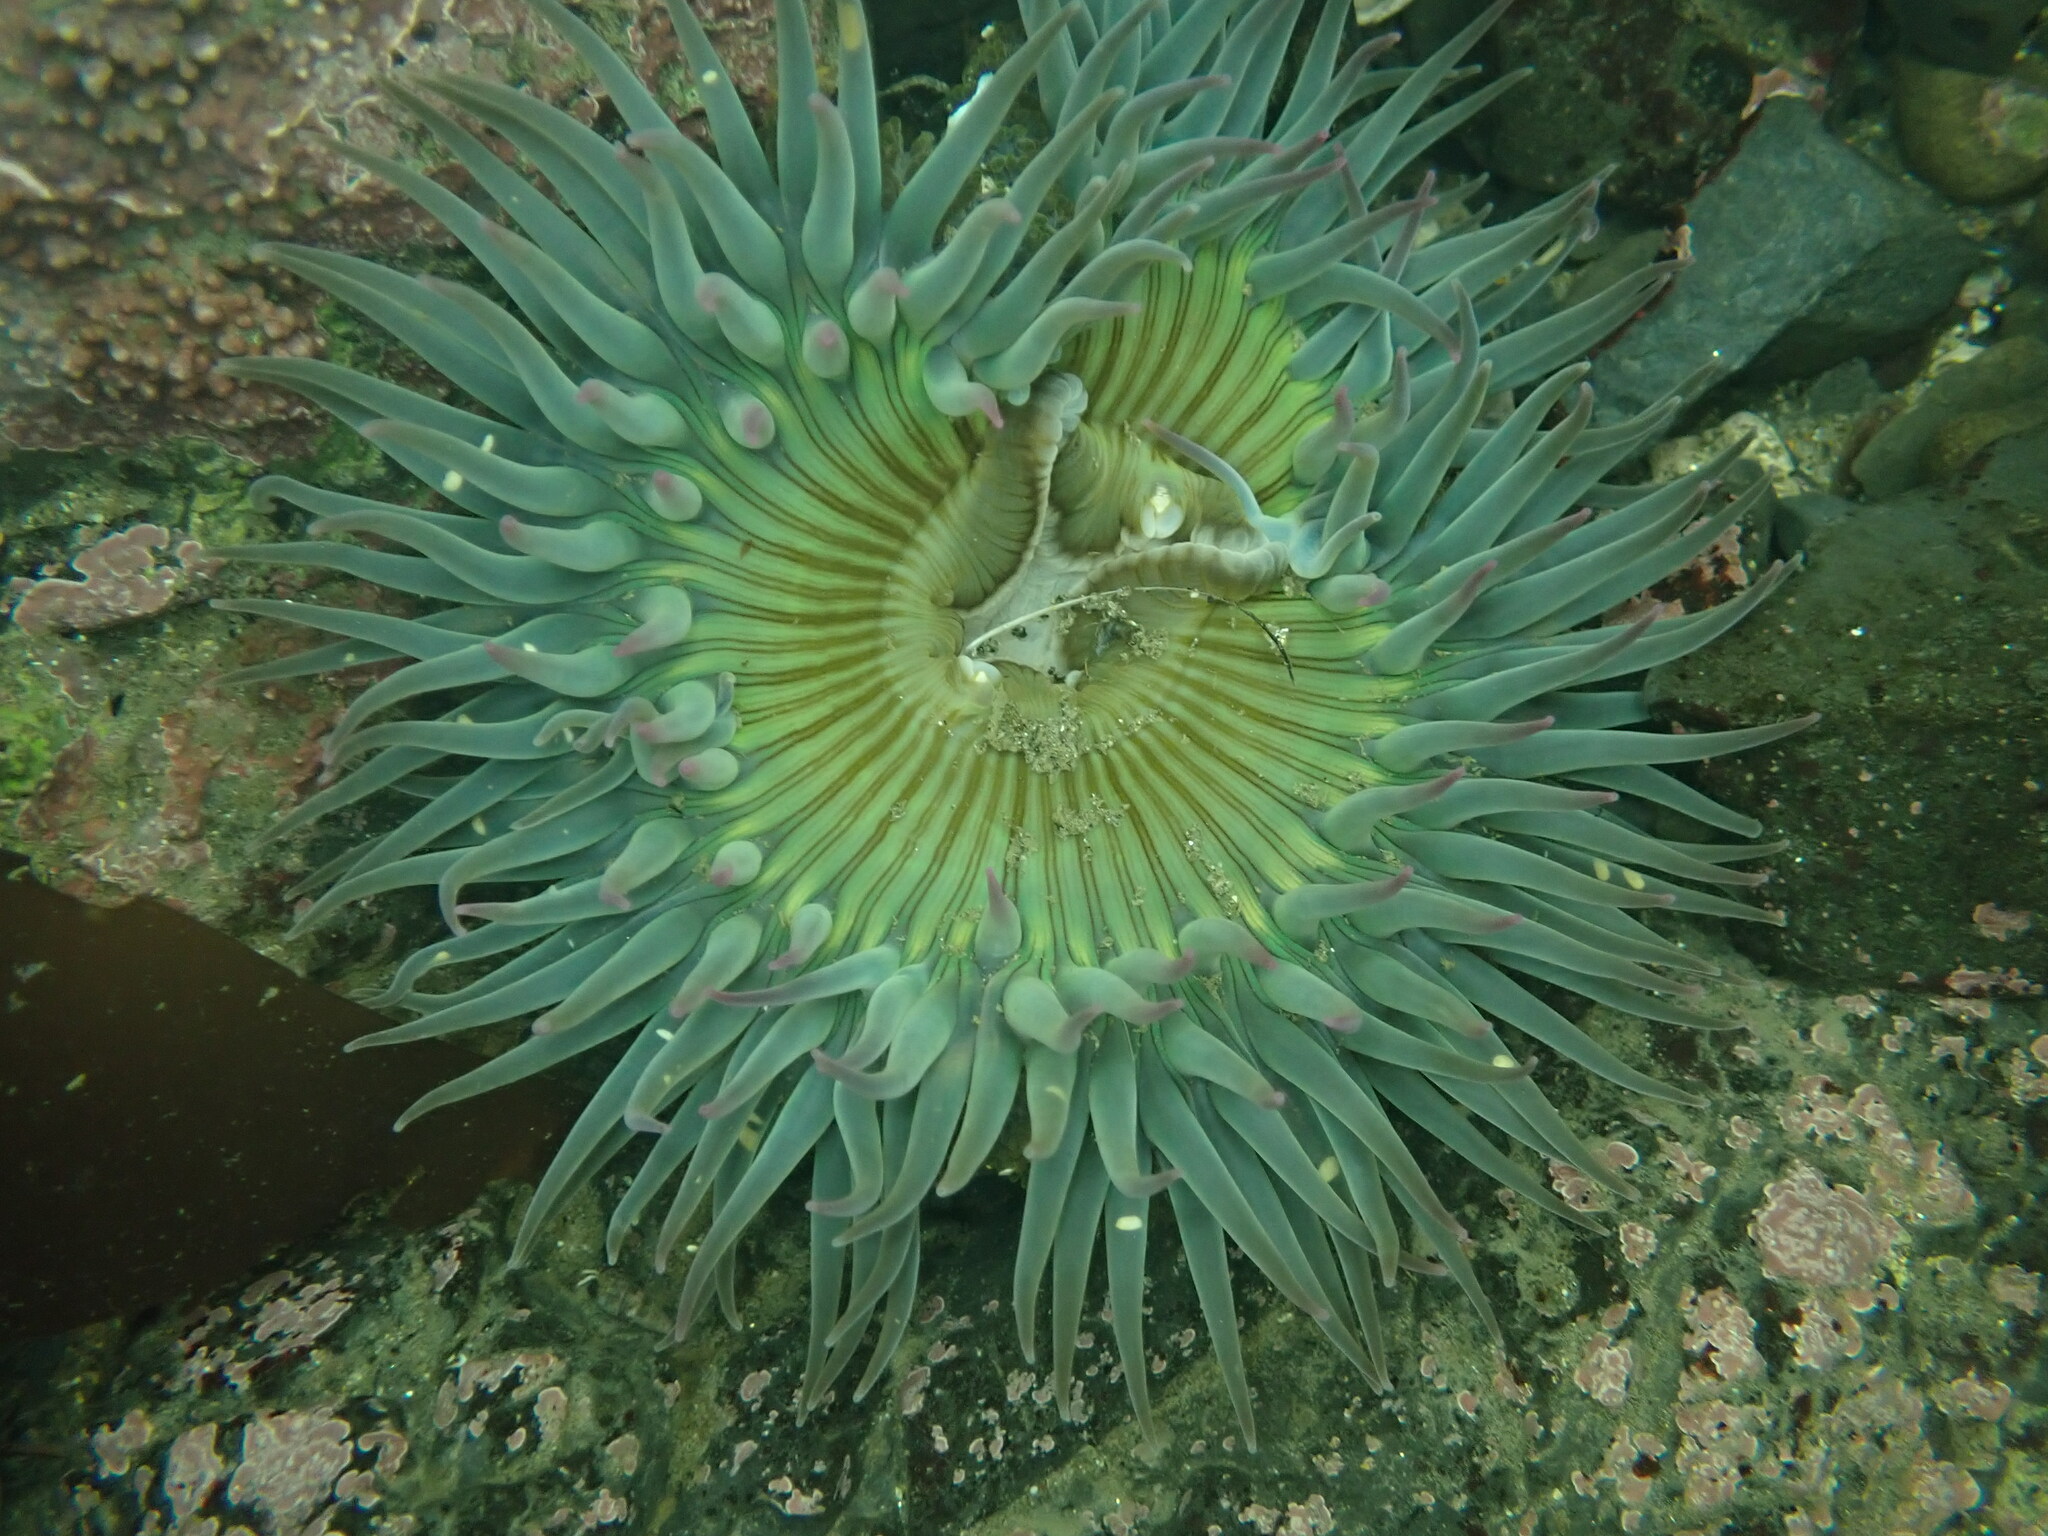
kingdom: Animalia
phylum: Cnidaria
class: Anthozoa
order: Actiniaria
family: Actiniidae
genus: Anthopleura
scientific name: Anthopleura sola
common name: Sun anemone
